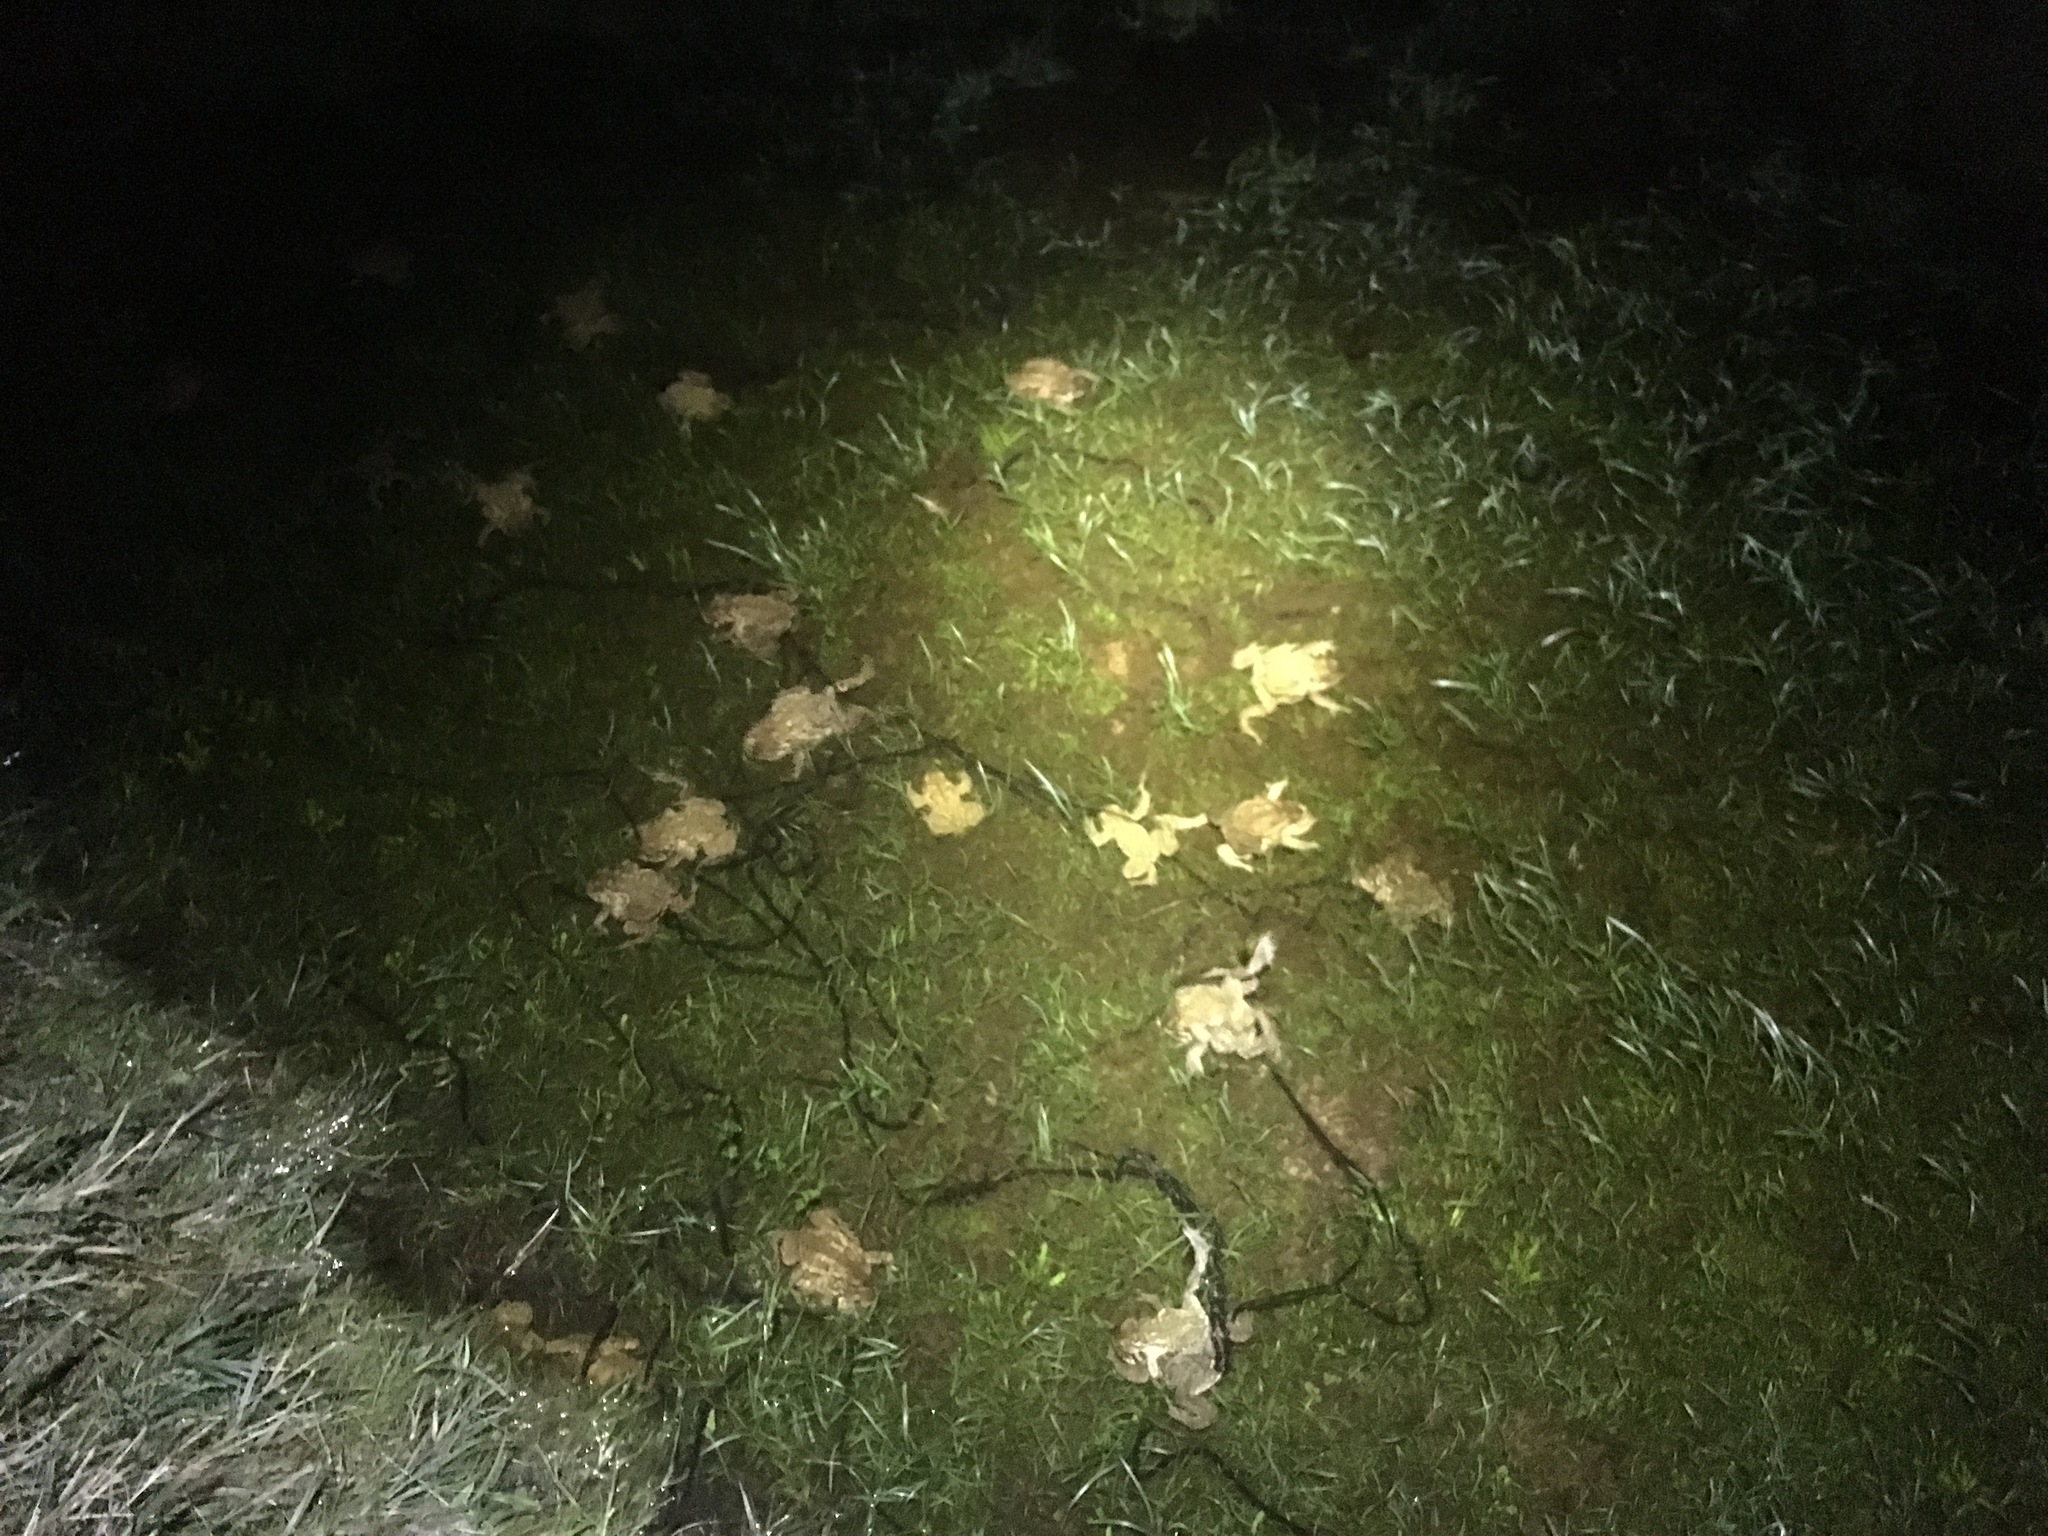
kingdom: Animalia
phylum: Chordata
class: Amphibia
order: Anura
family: Bufonidae
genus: Bufo
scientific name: Bufo spinosus
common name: Western common toad
